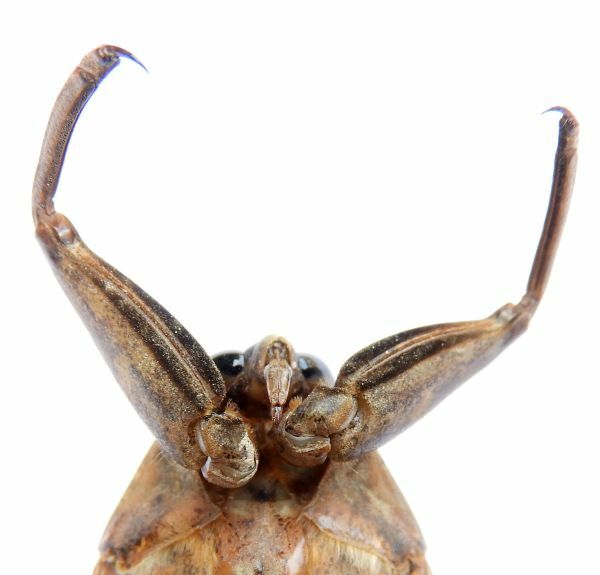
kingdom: Animalia
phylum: Arthropoda
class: Insecta
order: Hemiptera
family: Belostomatidae
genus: Lethocerus
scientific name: Lethocerus americanus
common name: Giant water bug
